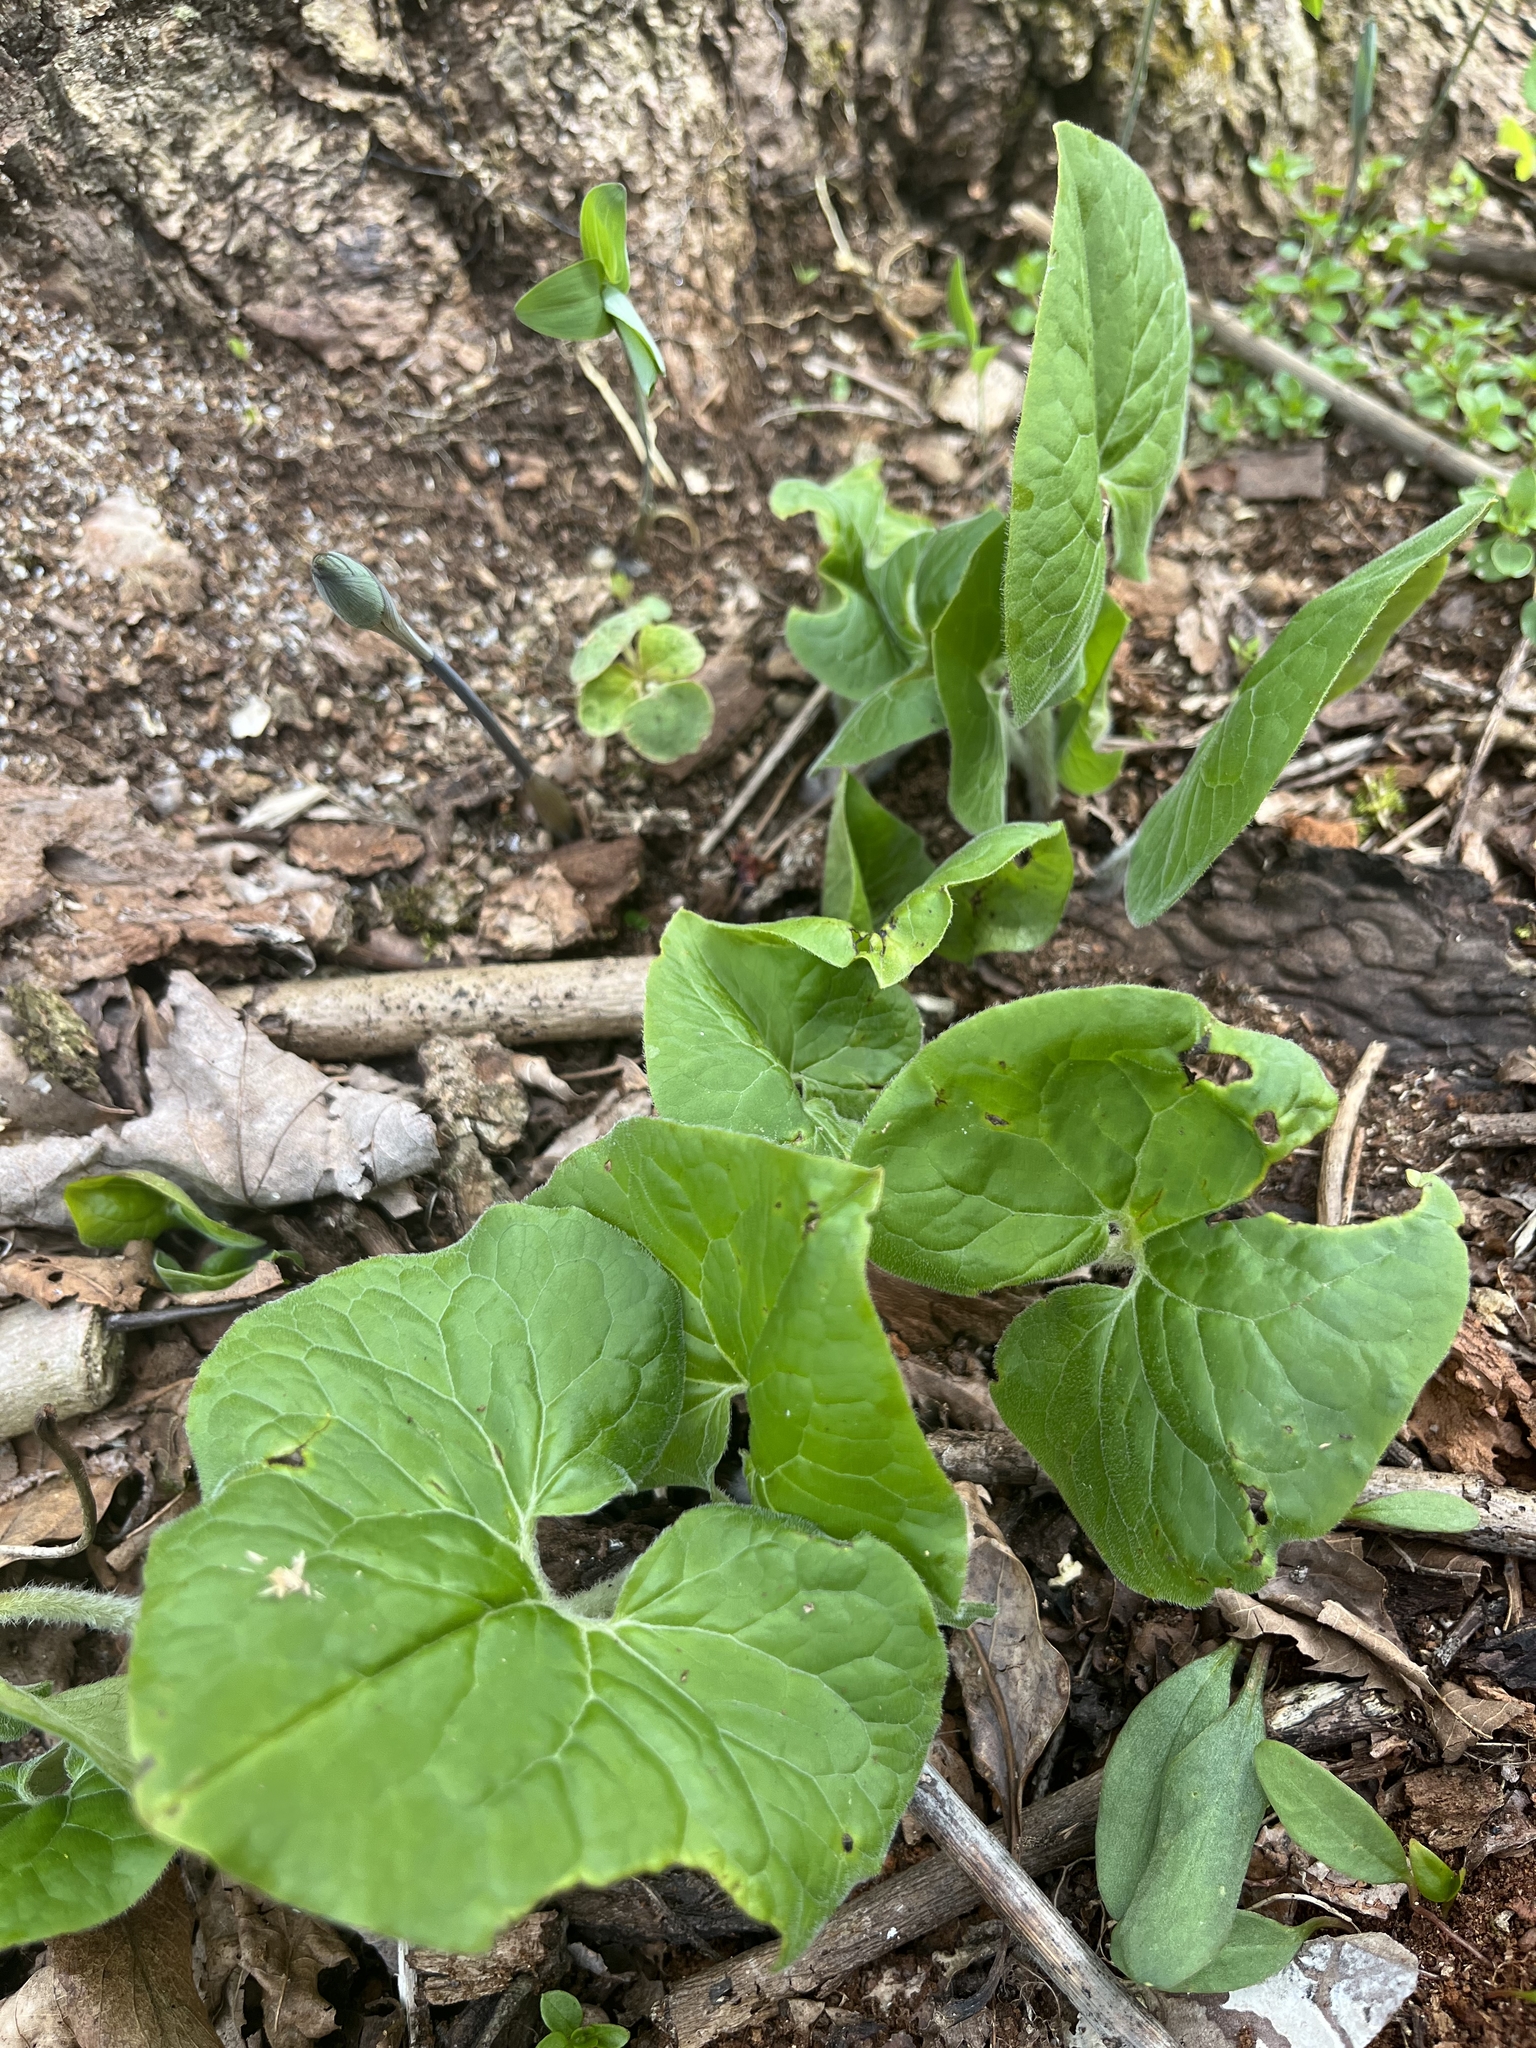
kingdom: Plantae
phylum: Tracheophyta
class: Magnoliopsida
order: Piperales
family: Aristolochiaceae
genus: Asarum
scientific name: Asarum canadense
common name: Wild ginger
